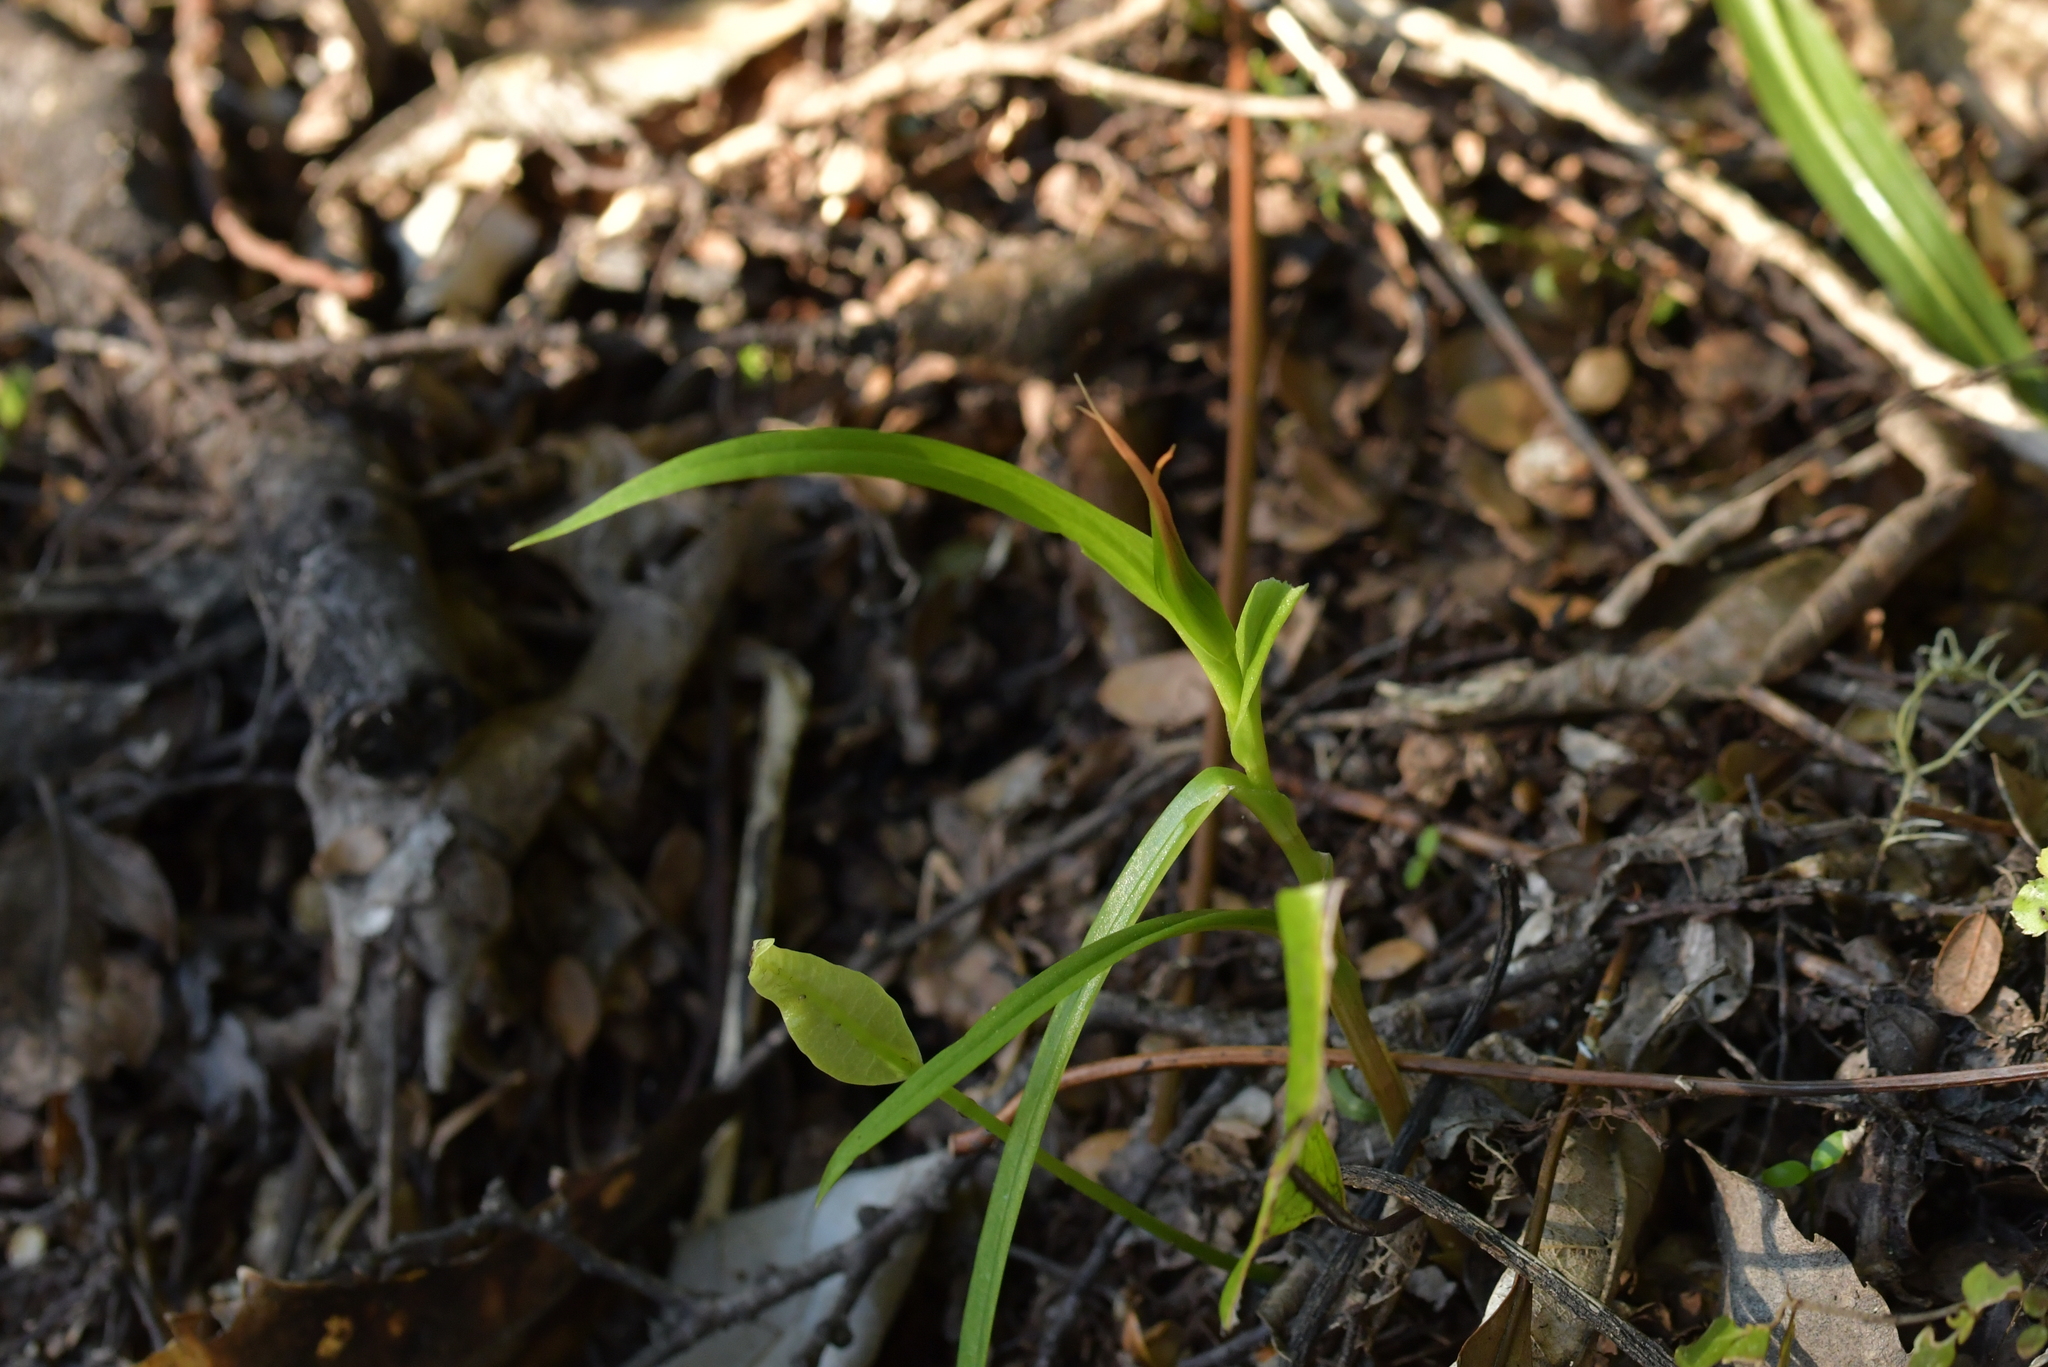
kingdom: Plantae
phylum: Tracheophyta
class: Liliopsida
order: Asparagales
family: Orchidaceae
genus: Pterostylis
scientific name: Pterostylis banksii
